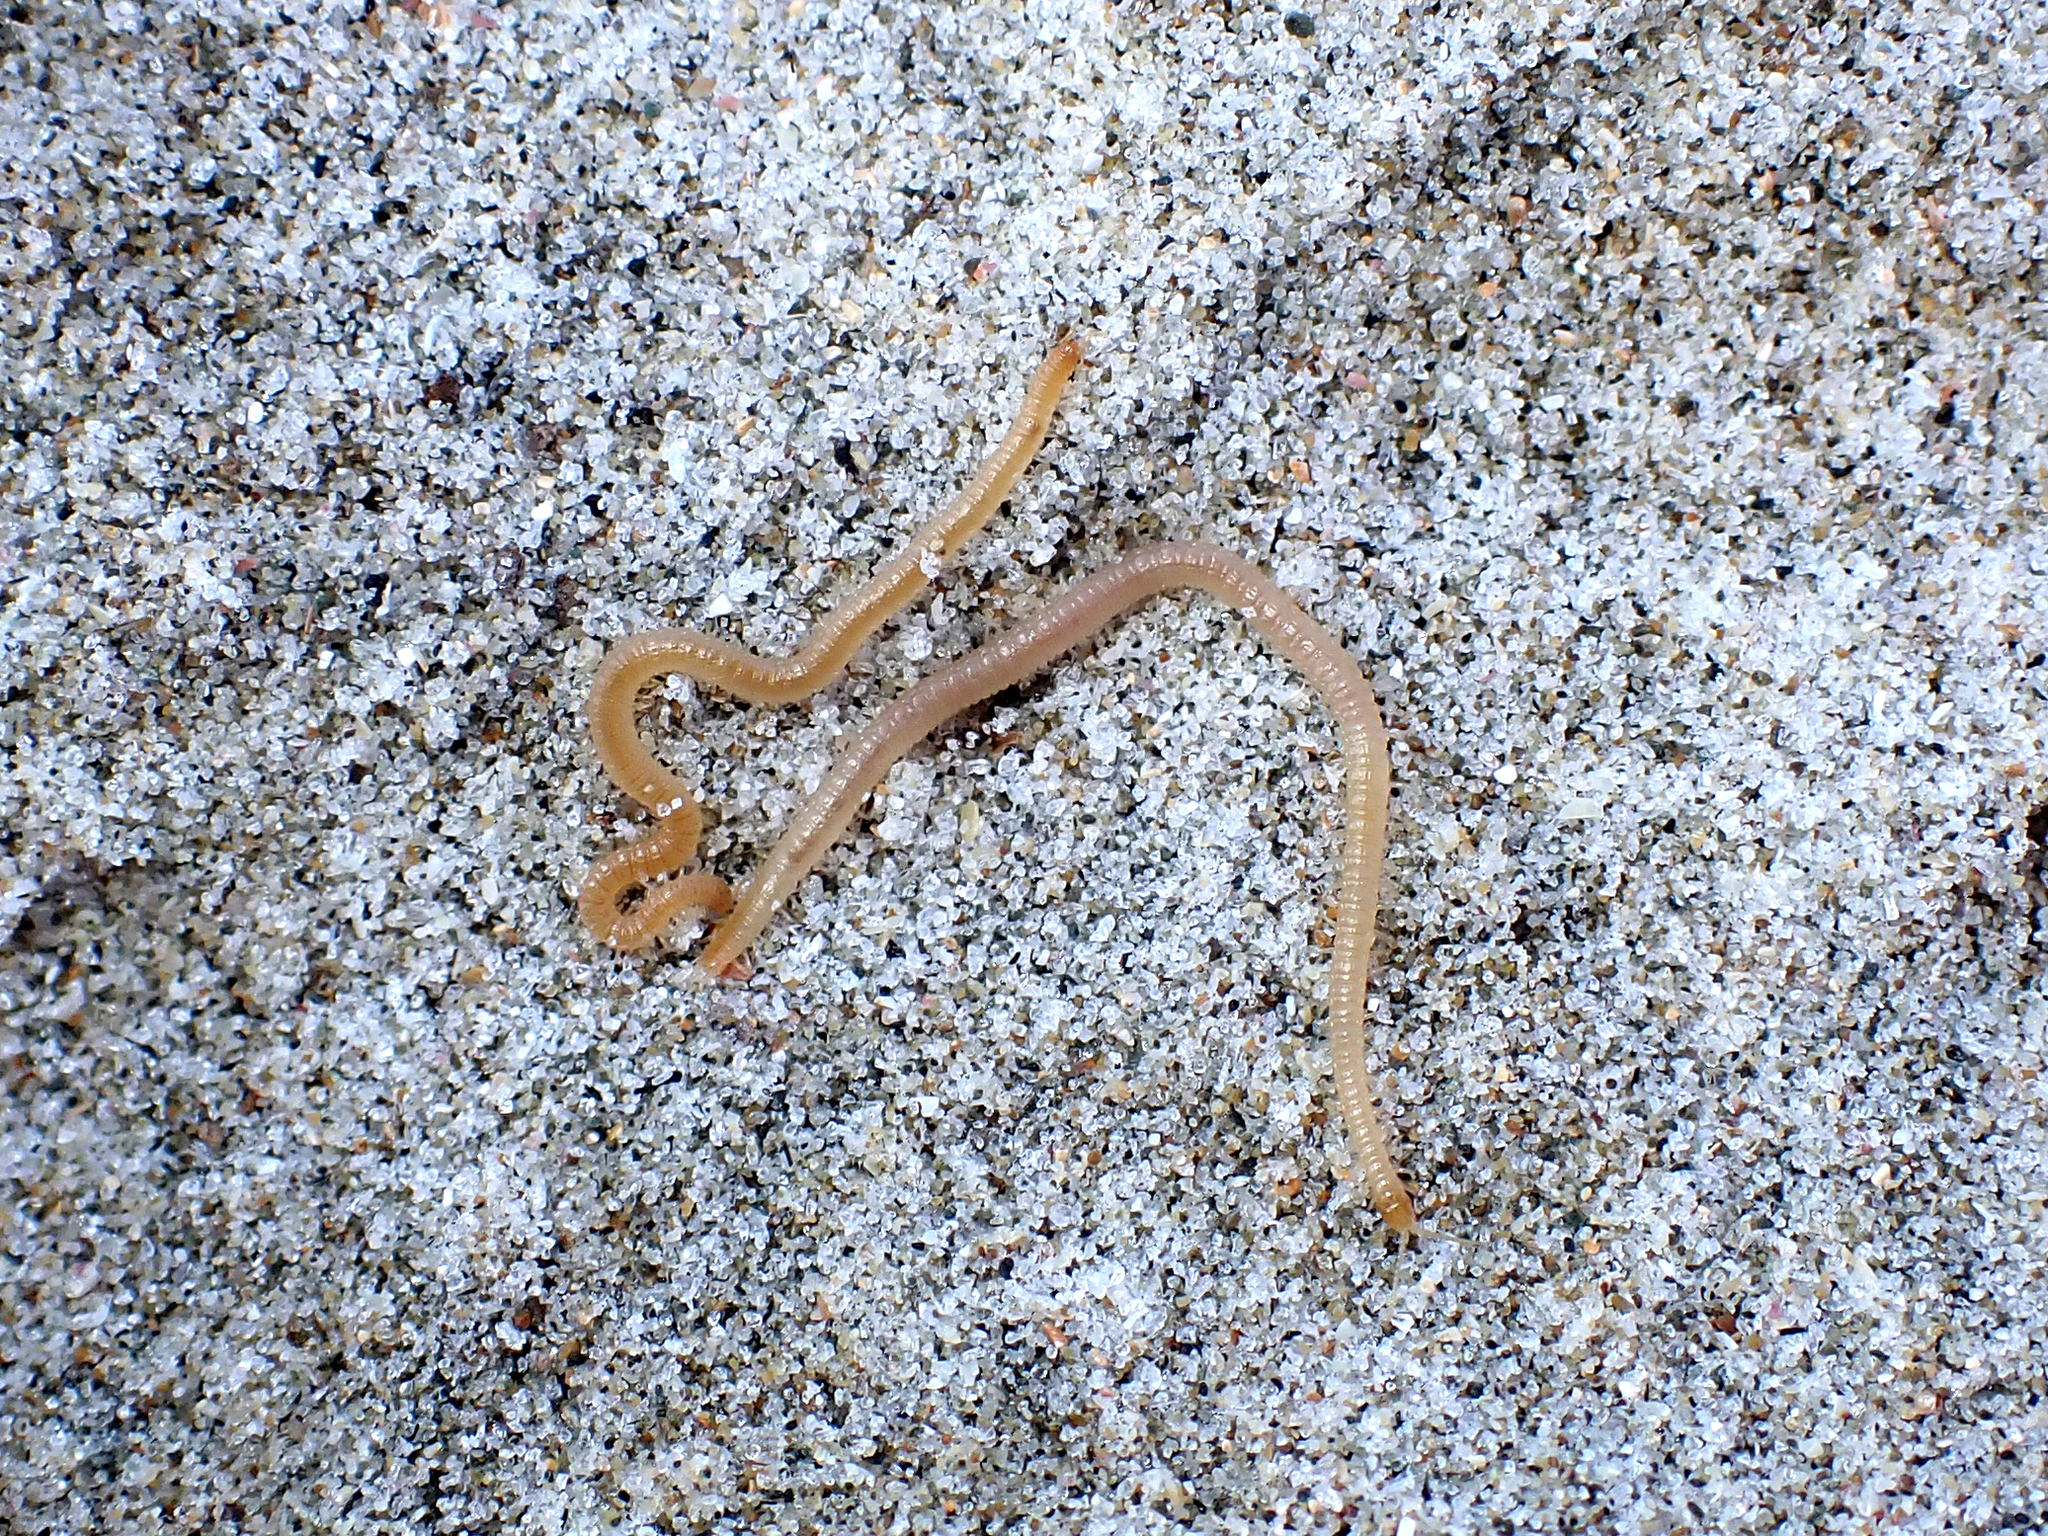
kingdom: Animalia
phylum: Arthropoda
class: Chilopoda
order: Geophilomorpha
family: Geophilidae
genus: Tuoba
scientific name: Tuoba xylophaga
